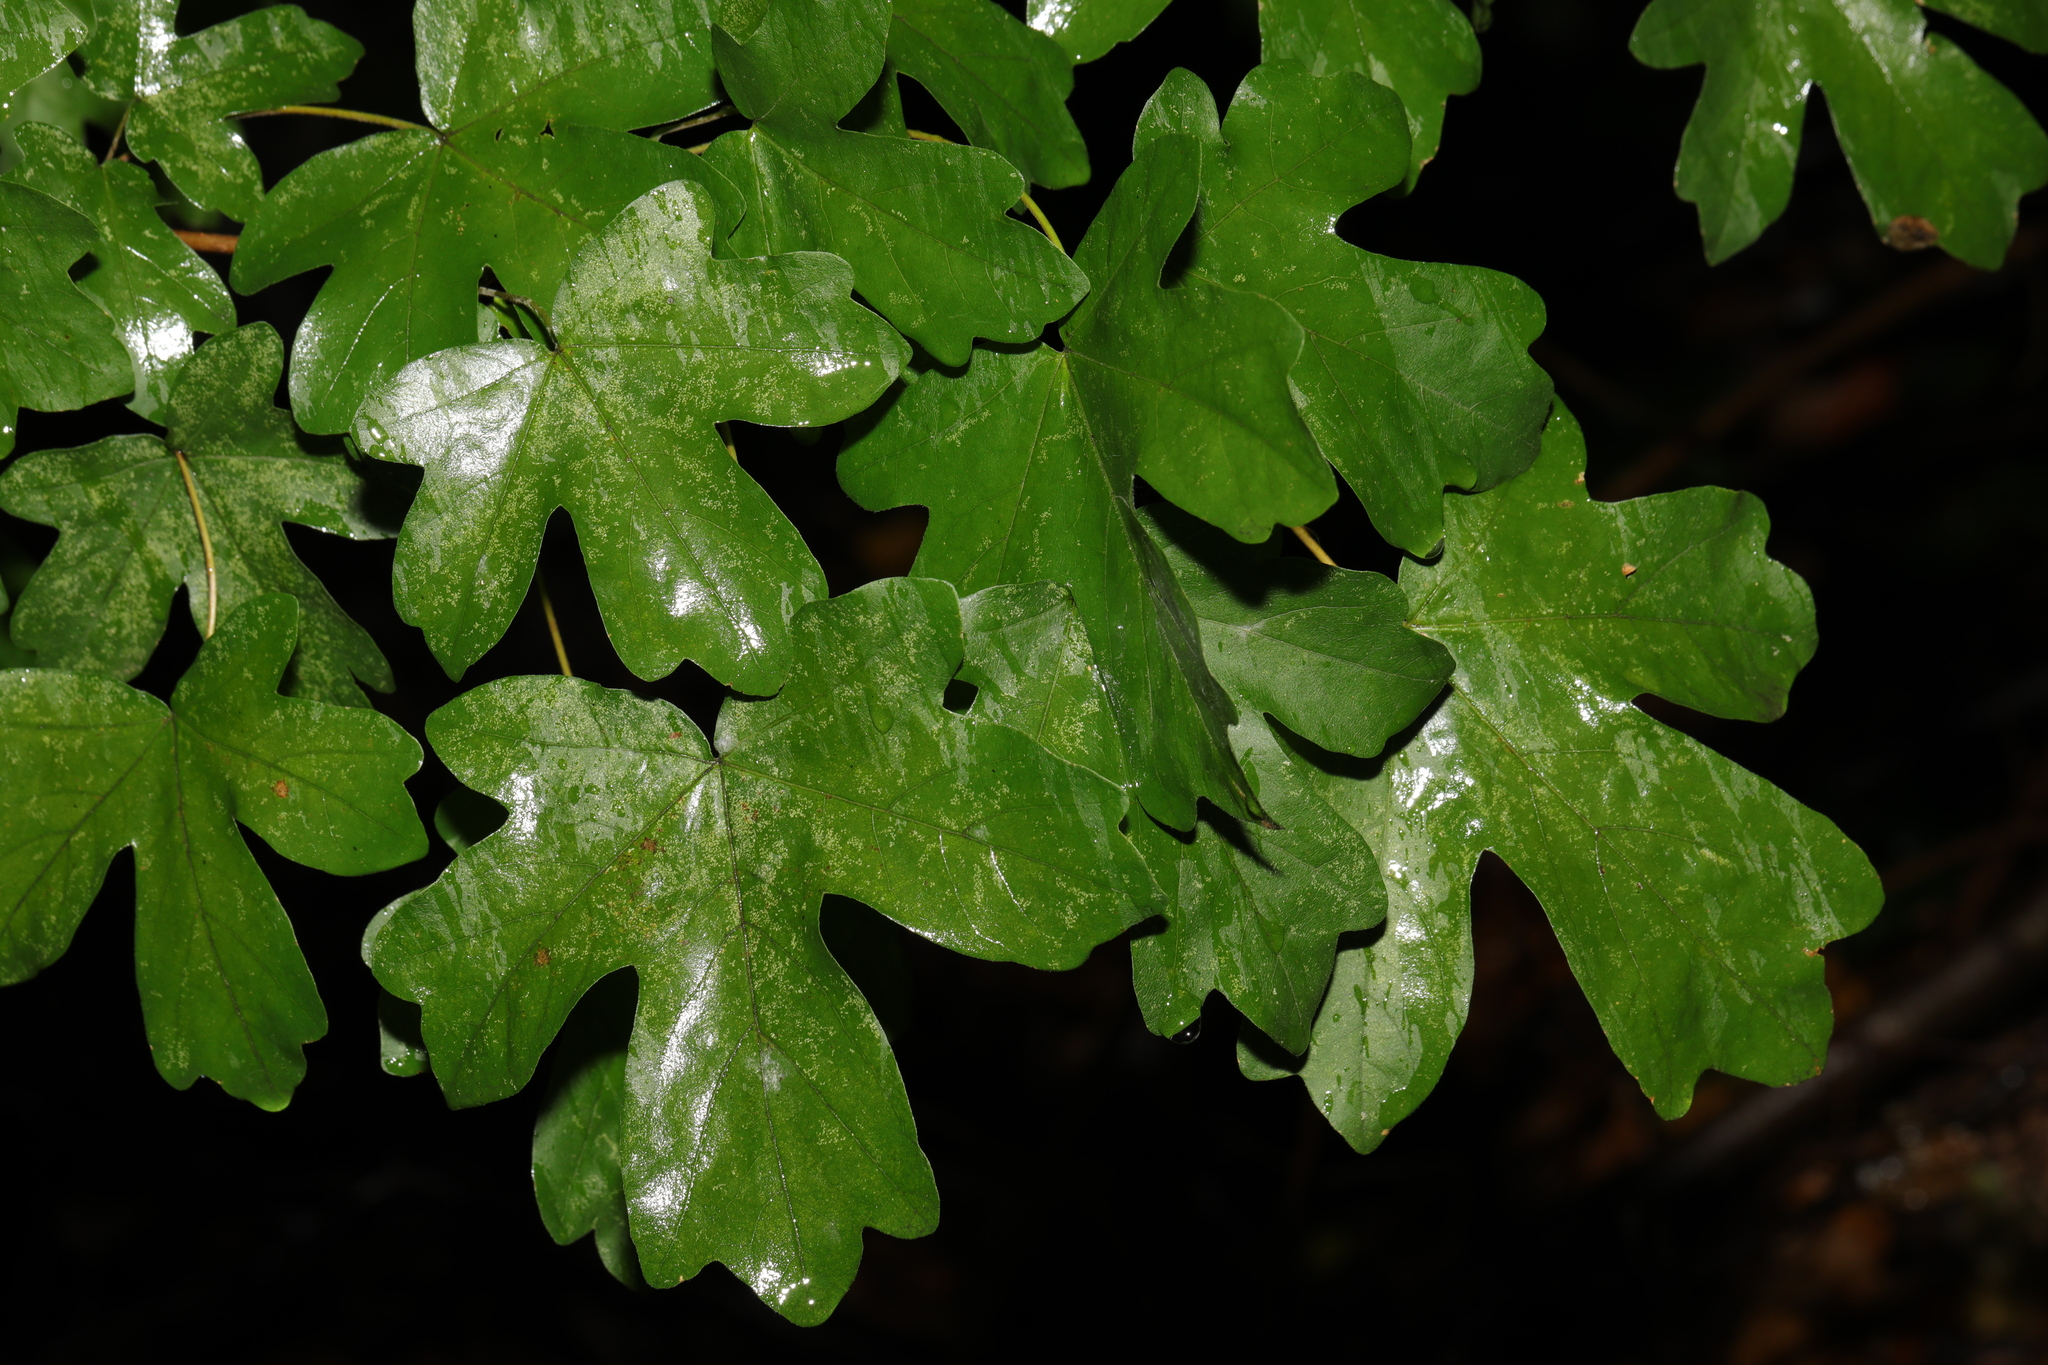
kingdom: Plantae
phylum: Tracheophyta
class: Magnoliopsida
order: Sapindales
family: Sapindaceae
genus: Acer
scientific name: Acer campestre
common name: Field maple
